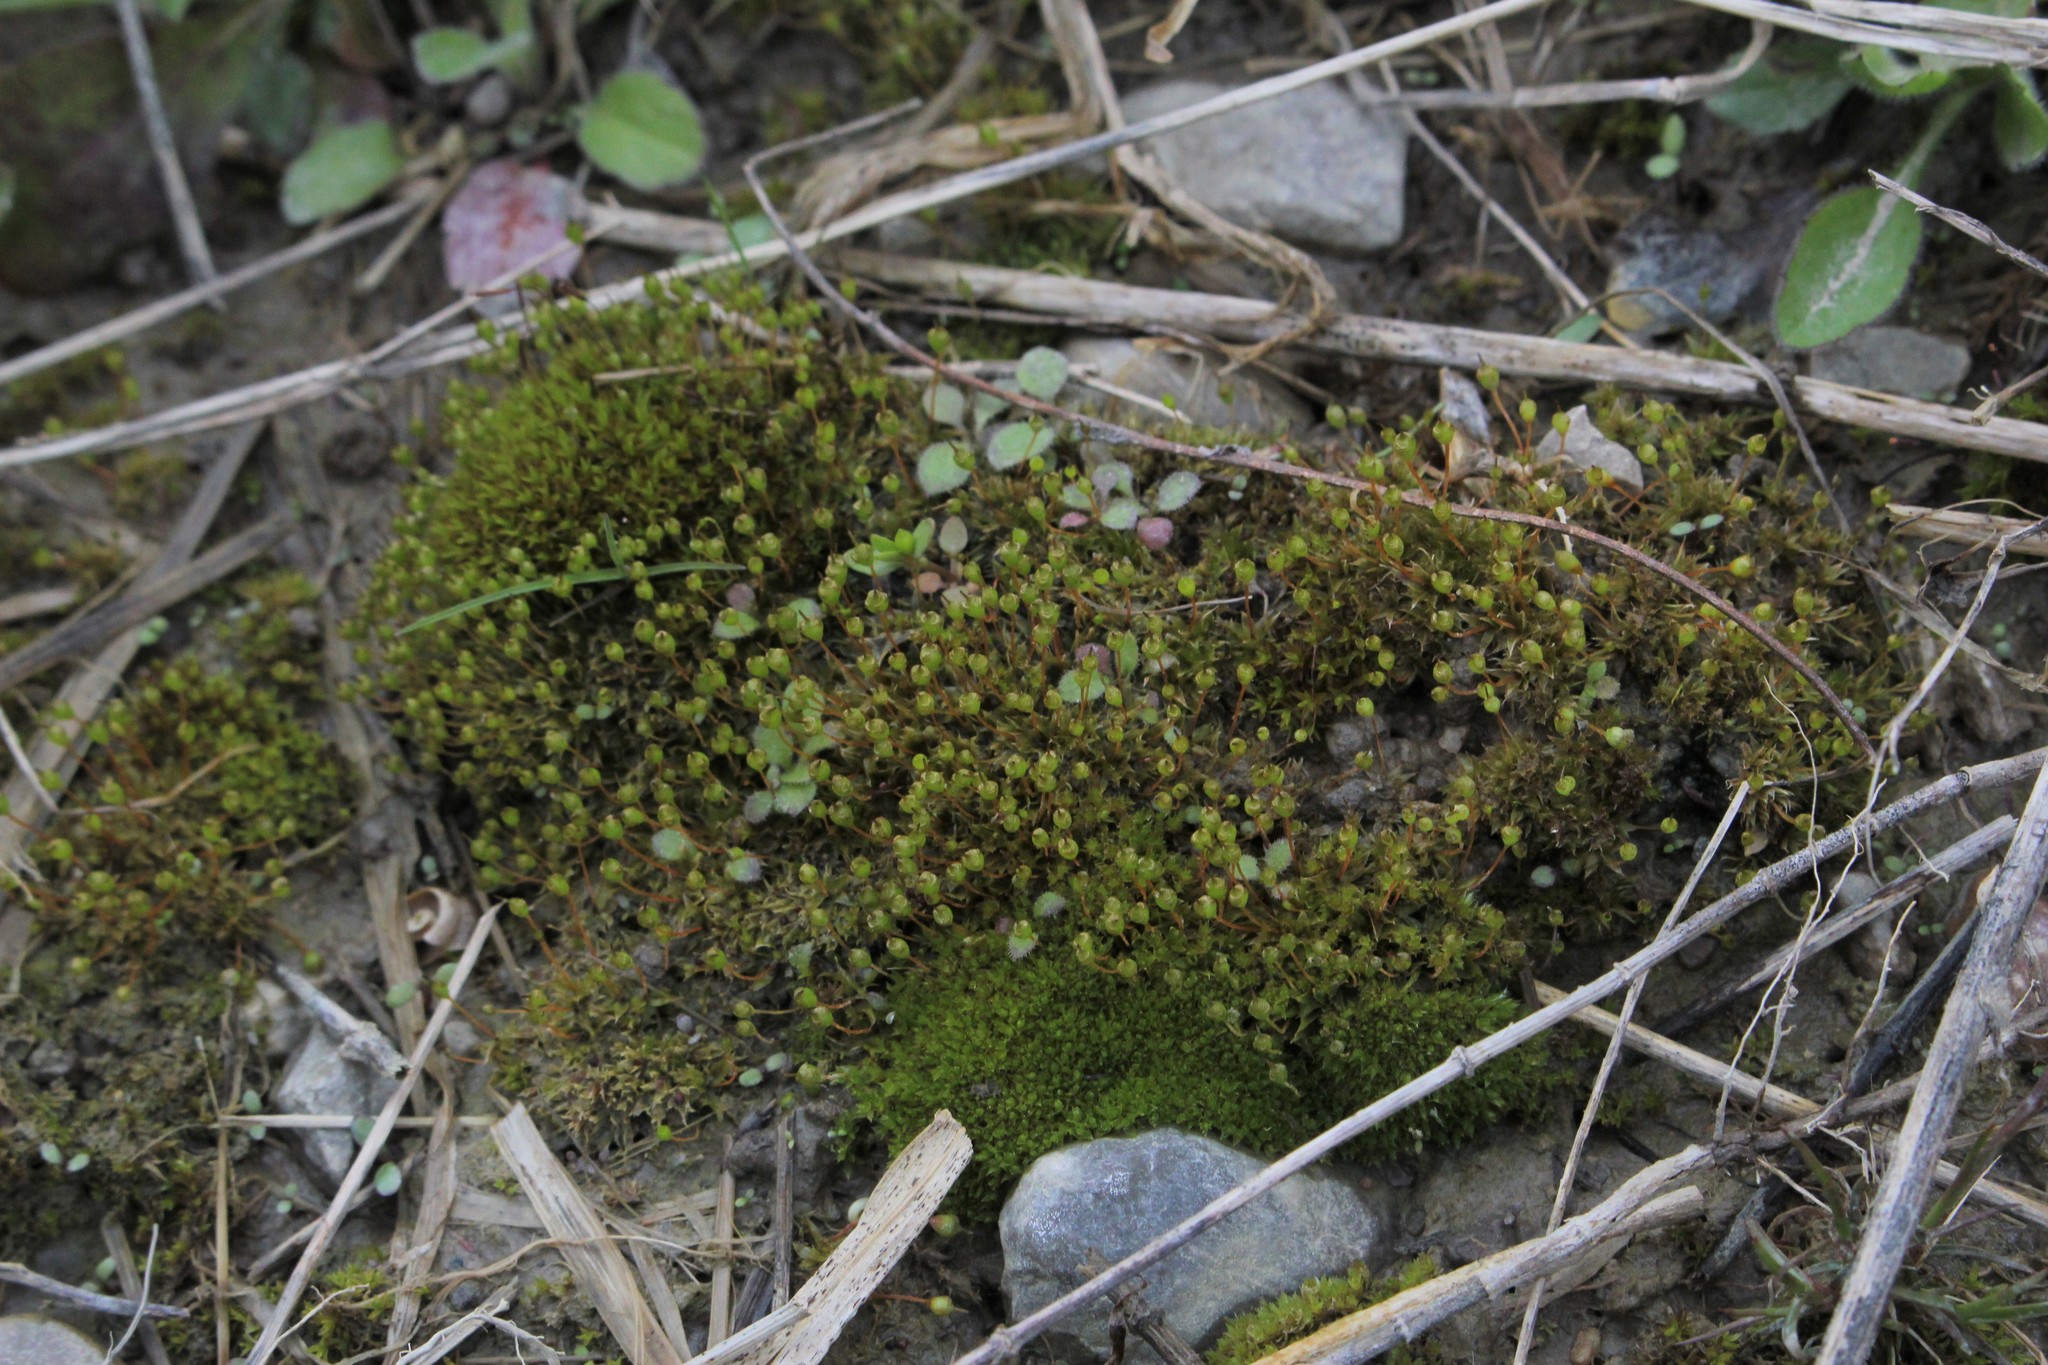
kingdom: Plantae
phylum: Bryophyta
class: Bryopsida
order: Funariales
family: Funariaceae
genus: Physcomitrium
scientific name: Physcomitrium pyriforme
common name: Common bladder-moss
